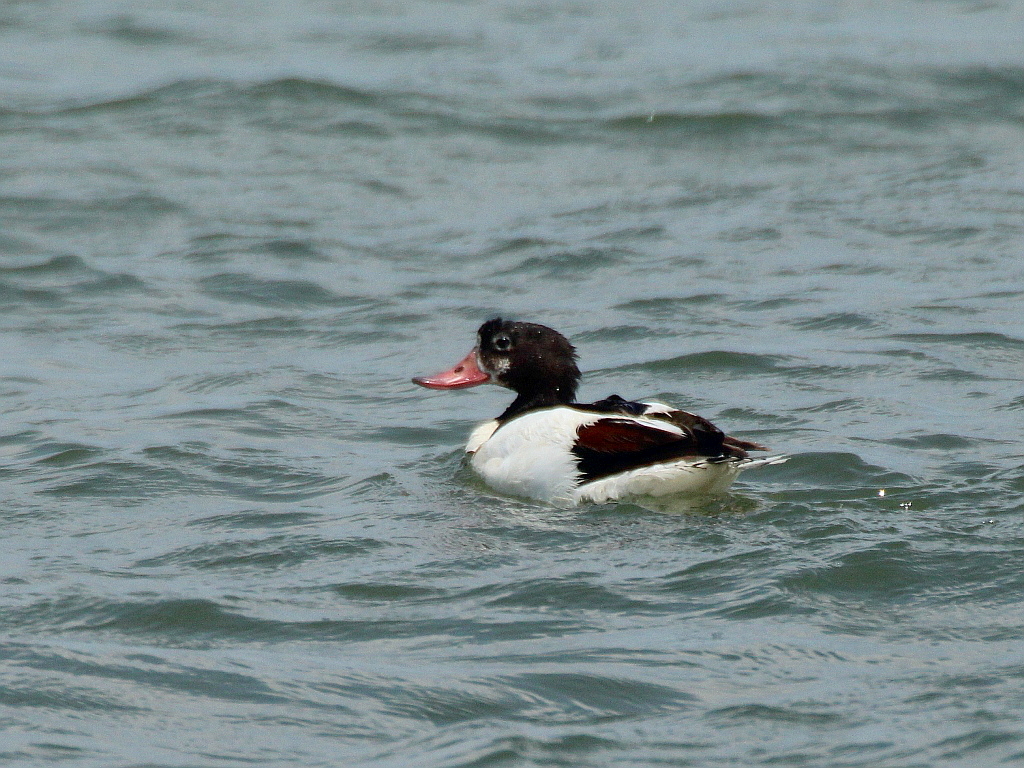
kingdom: Animalia
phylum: Chordata
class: Aves
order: Anseriformes
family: Anatidae
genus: Tadorna
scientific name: Tadorna tadorna
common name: Common shelduck
